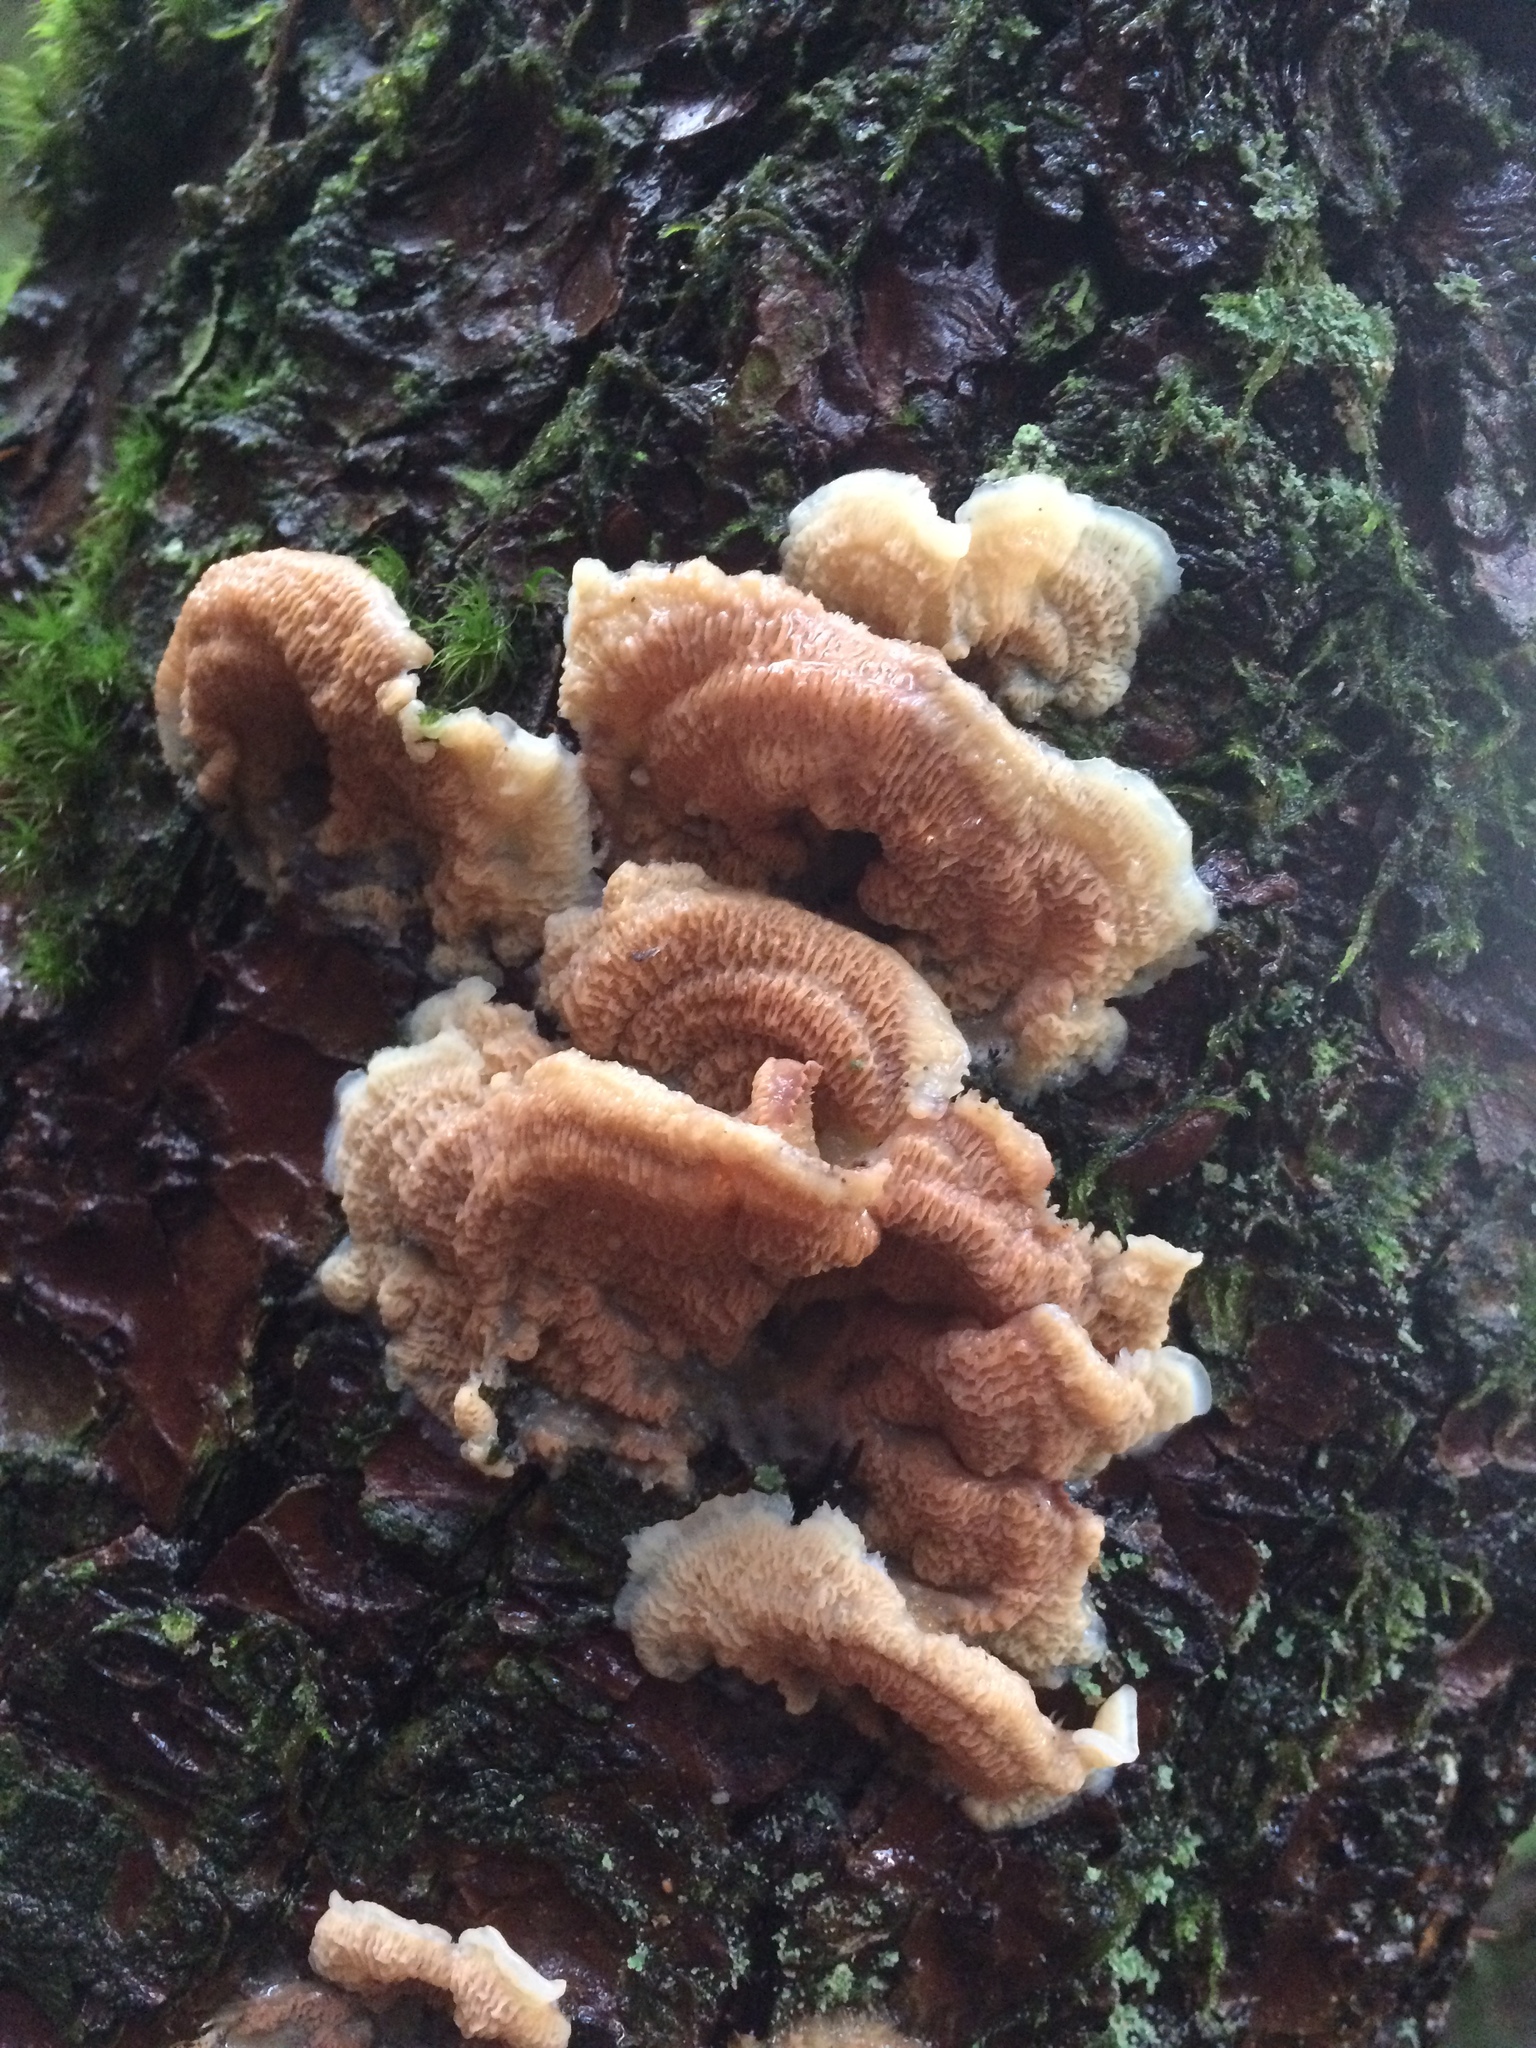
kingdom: Fungi
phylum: Basidiomycota
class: Agaricomycetes
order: Polyporales
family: Meruliaceae
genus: Phlebia
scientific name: Phlebia tremellosa
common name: Jelly rot
